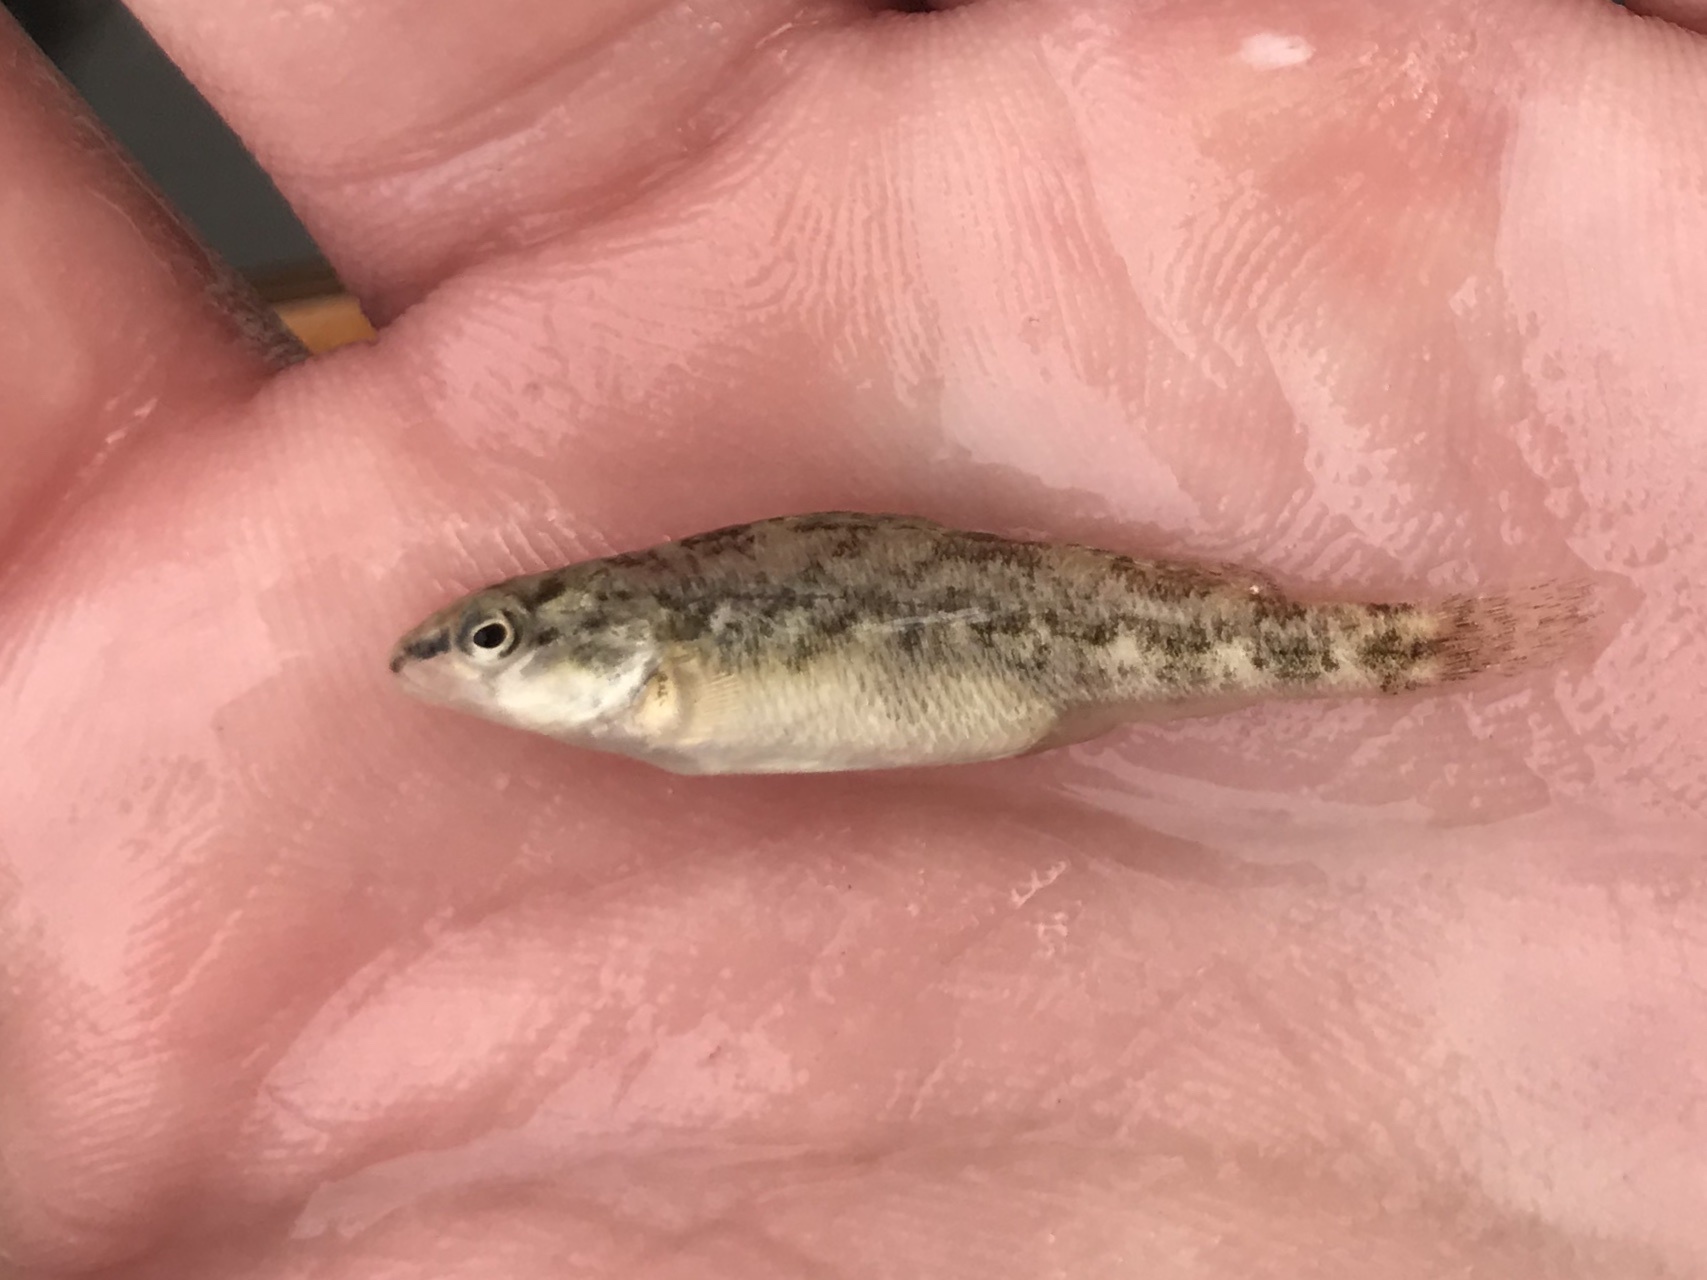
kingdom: Animalia
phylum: Chordata
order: Perciformes
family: Percidae
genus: Etheostoma
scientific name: Etheostoma pulchellum
